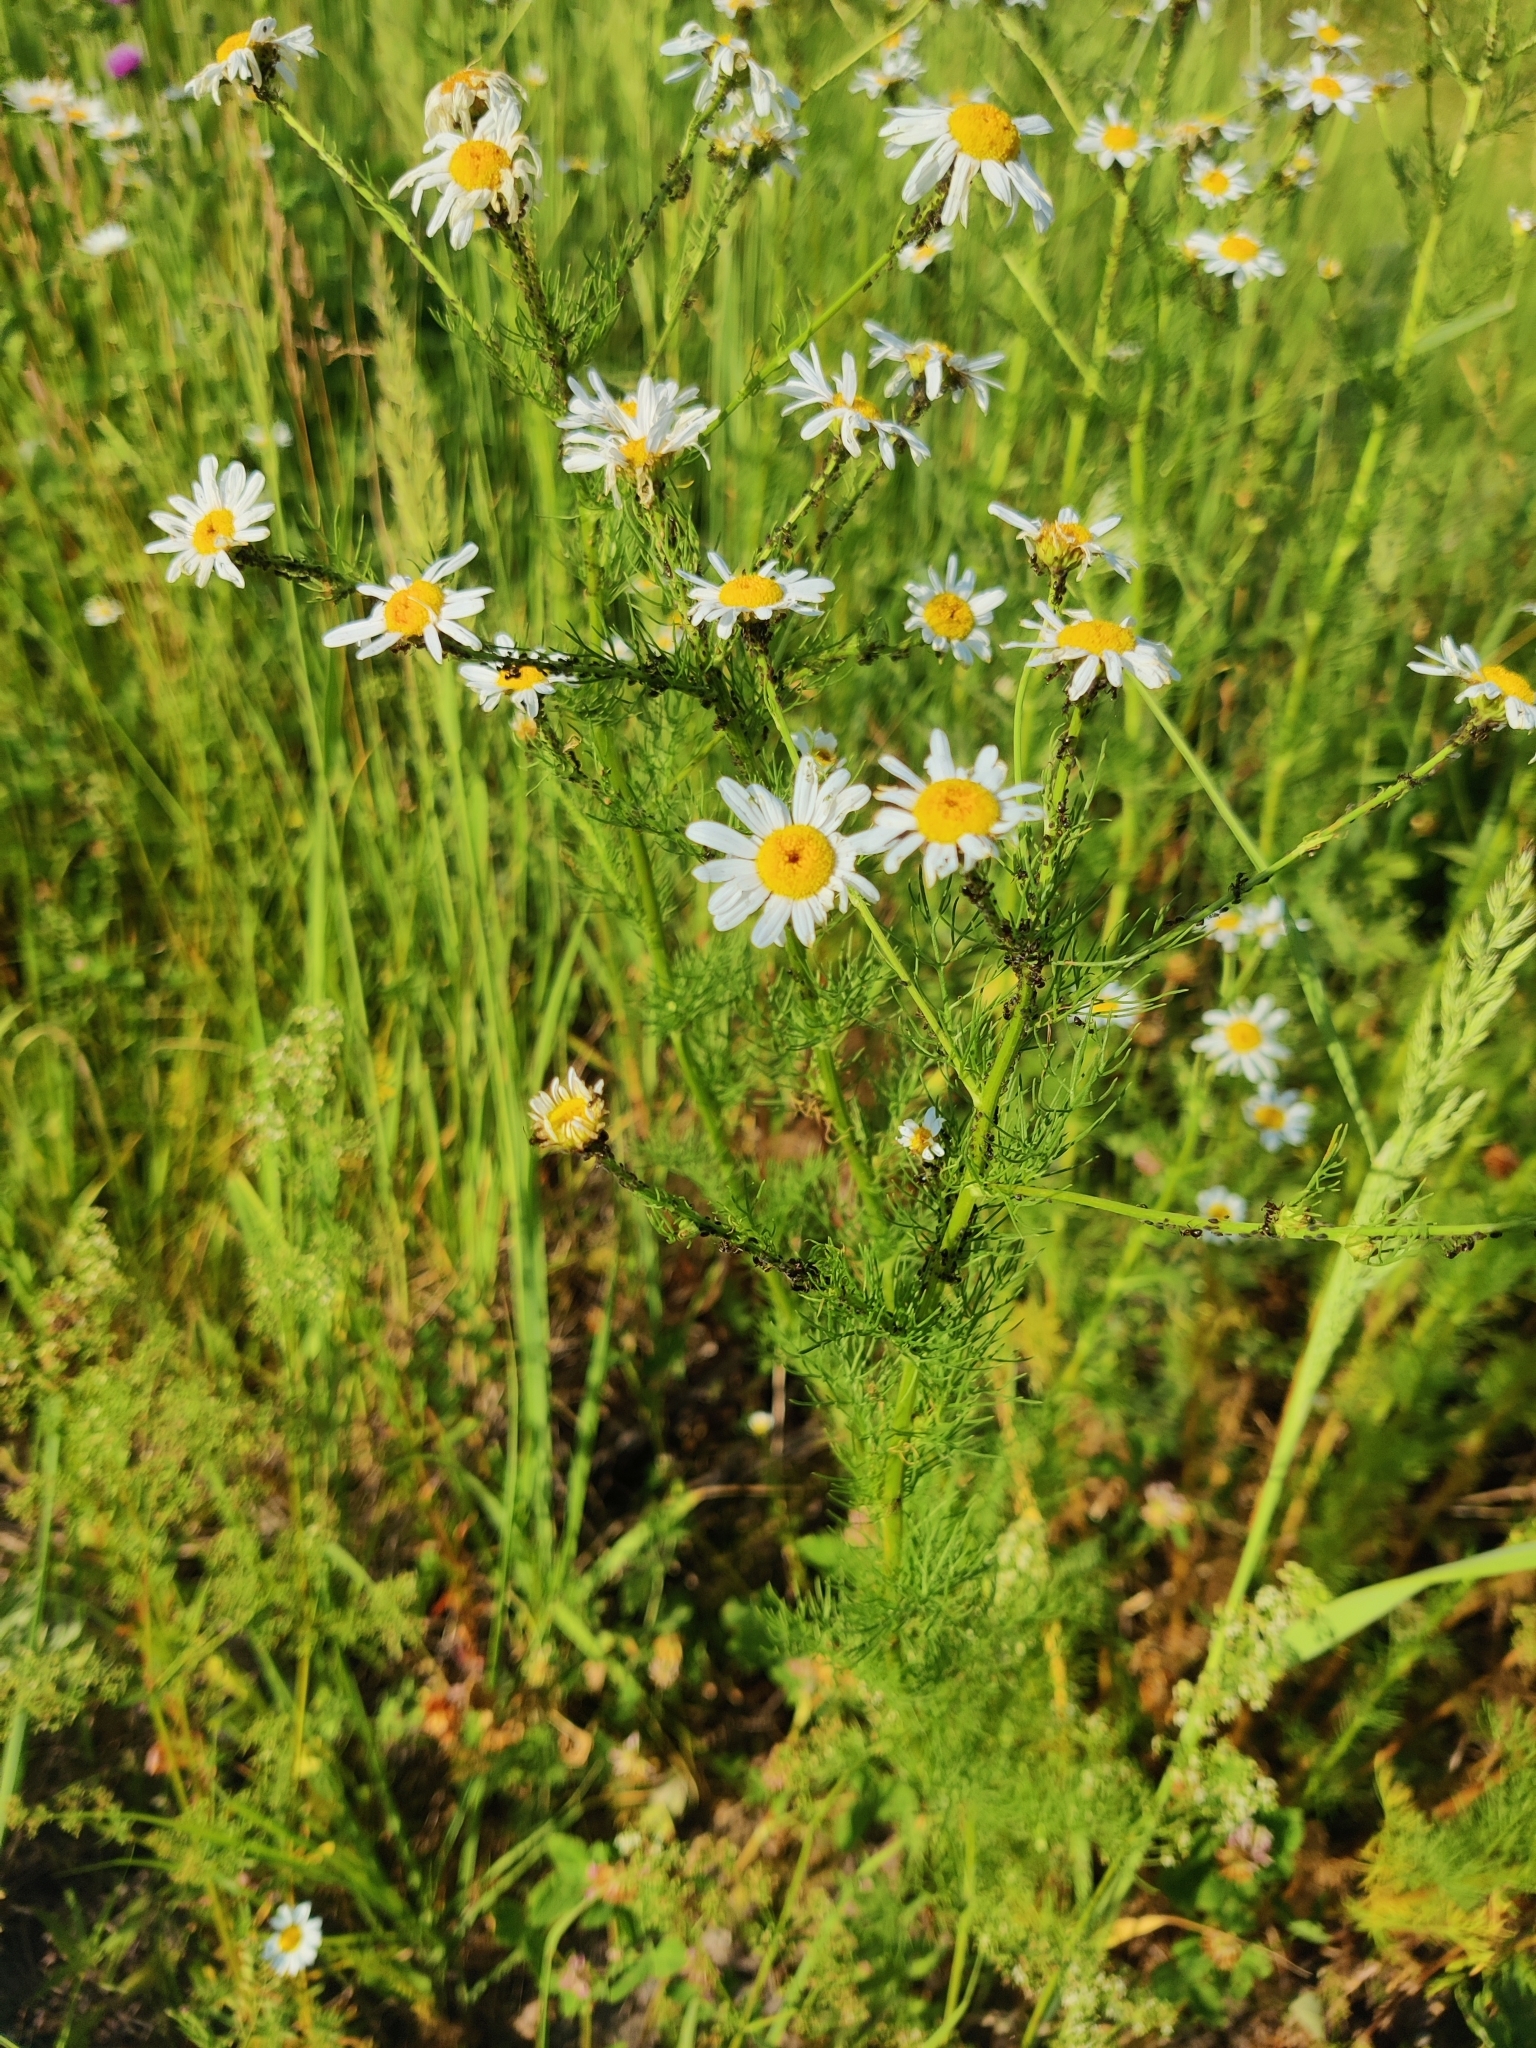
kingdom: Plantae
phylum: Tracheophyta
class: Magnoliopsida
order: Asterales
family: Asteraceae
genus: Tripleurospermum
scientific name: Tripleurospermum inodorum
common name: Scentless mayweed
